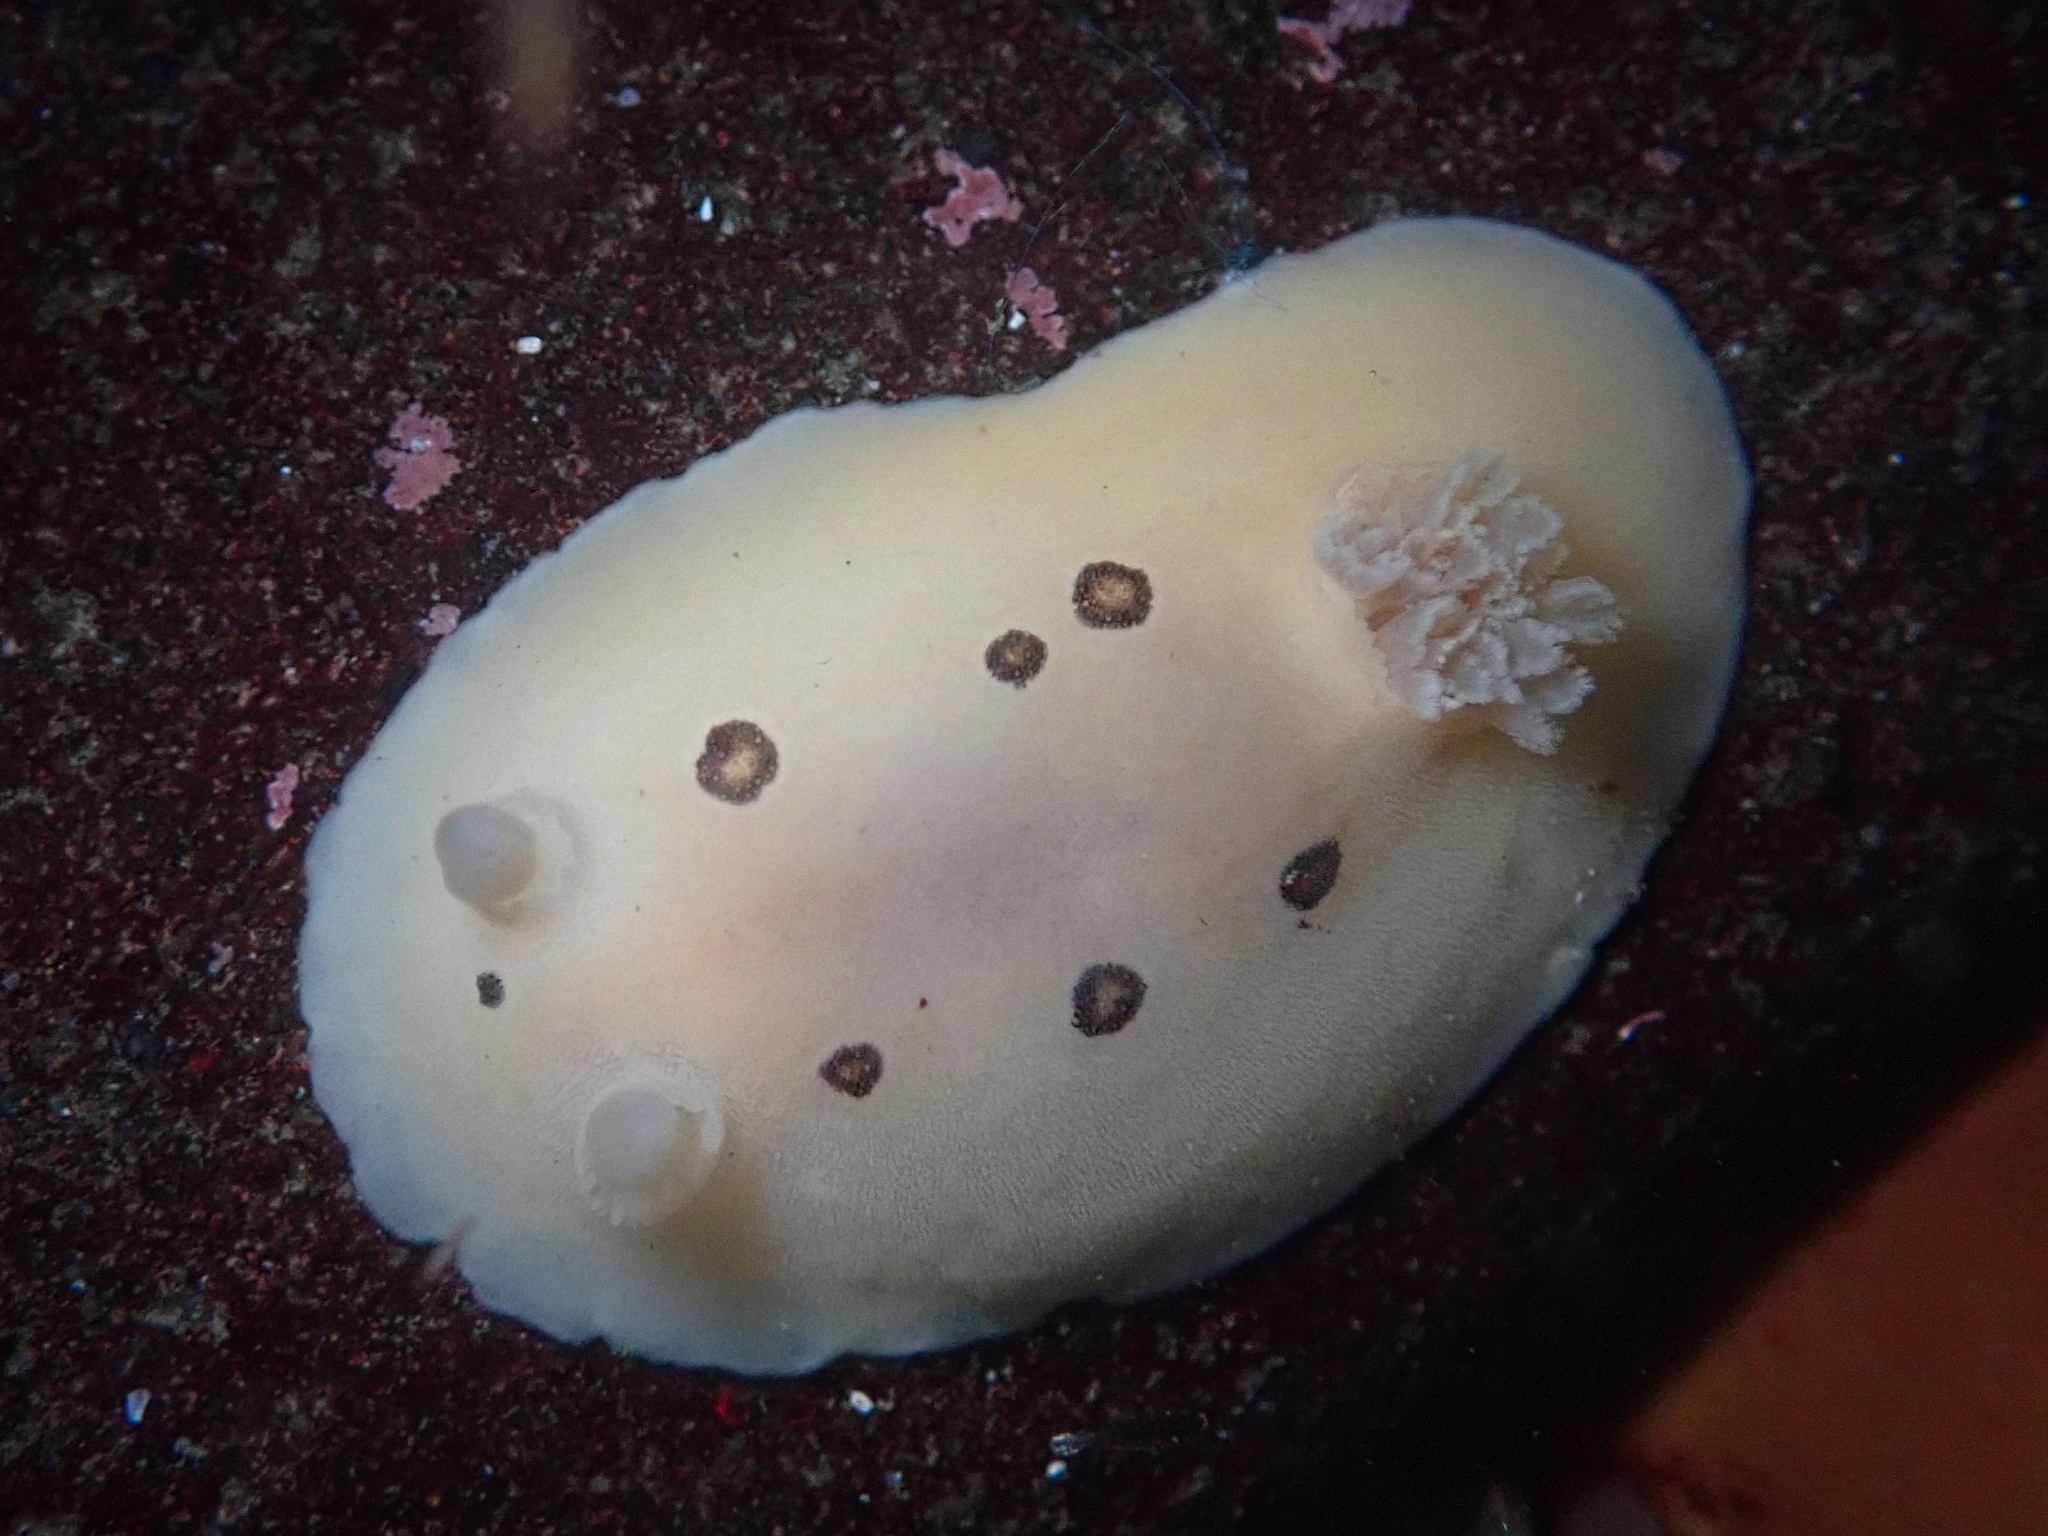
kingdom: Animalia
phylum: Mollusca
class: Gastropoda
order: Nudibranchia
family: Discodorididae
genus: Diaulula
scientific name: Diaulula sandiegensis
